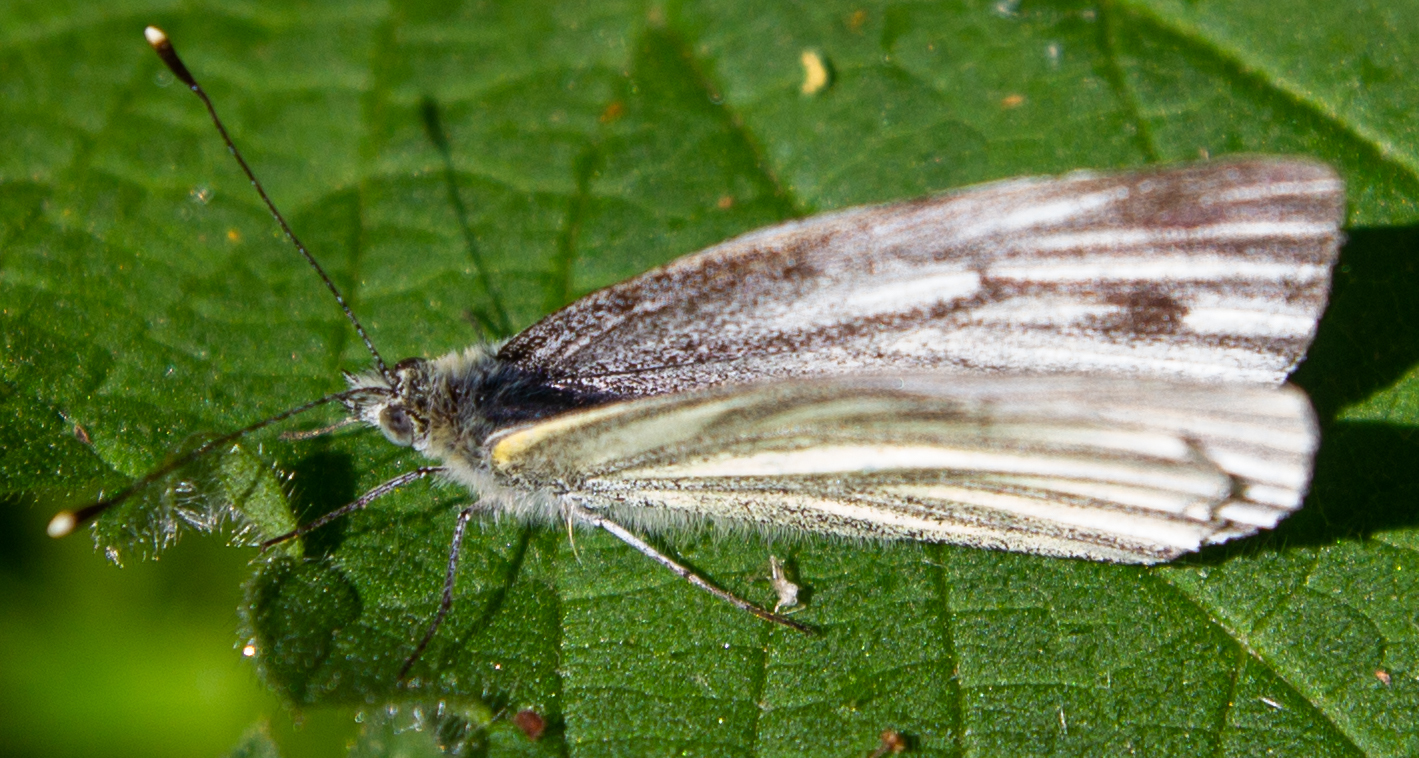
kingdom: Animalia
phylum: Arthropoda
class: Insecta
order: Lepidoptera
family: Pieridae
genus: Pieris
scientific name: Pieris napi
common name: Green-veined white
